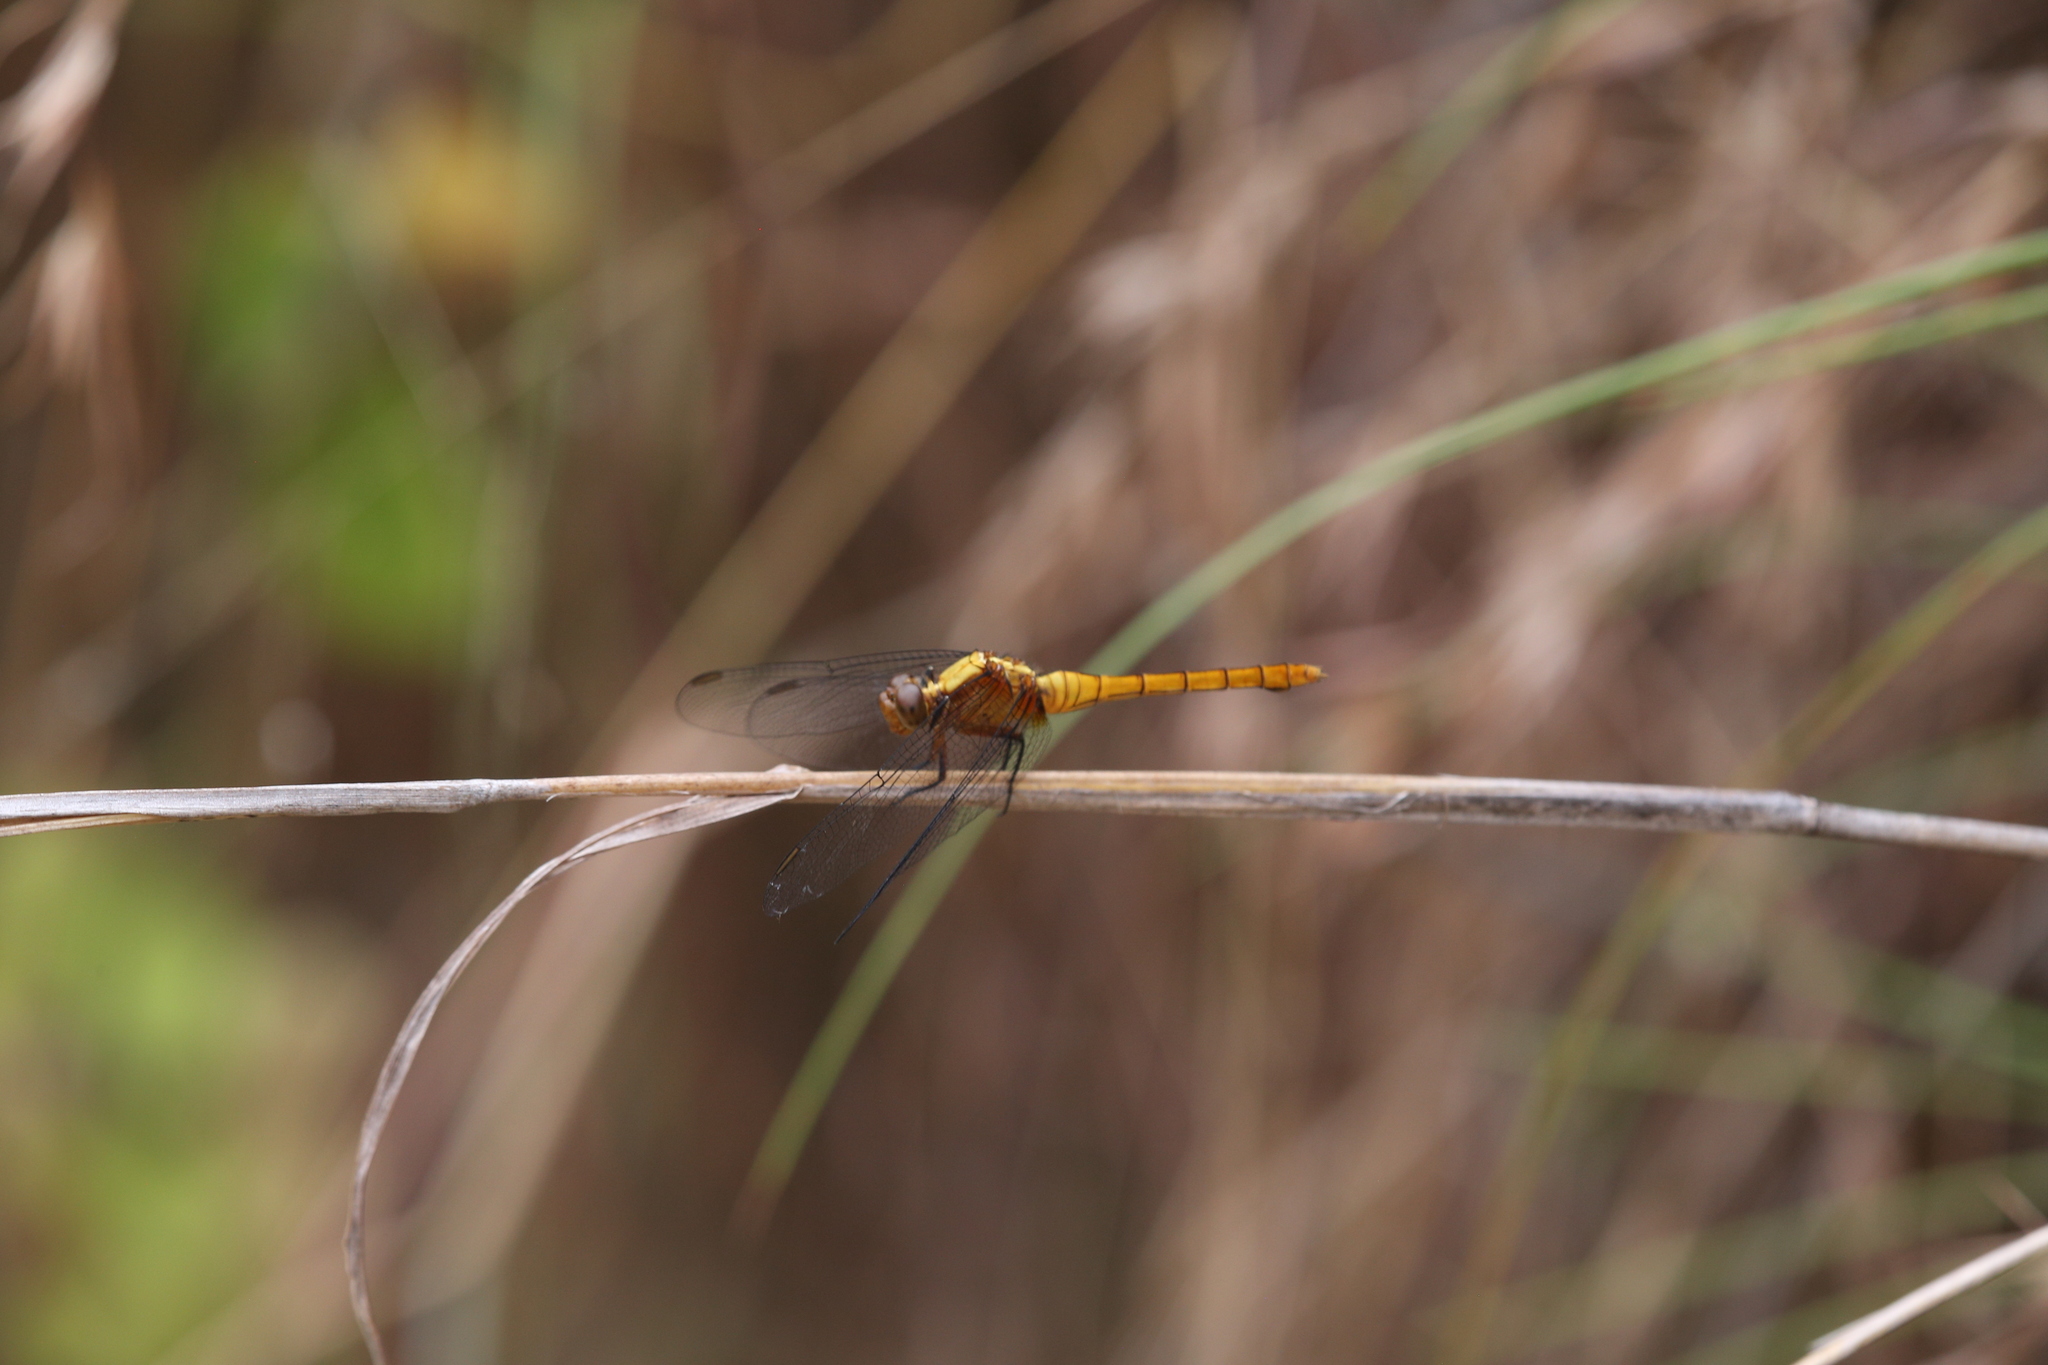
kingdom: Animalia
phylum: Arthropoda
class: Insecta
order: Odonata
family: Libellulidae
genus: Orthetrum
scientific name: Orthetrum villosovittatum
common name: Firery skimmer
